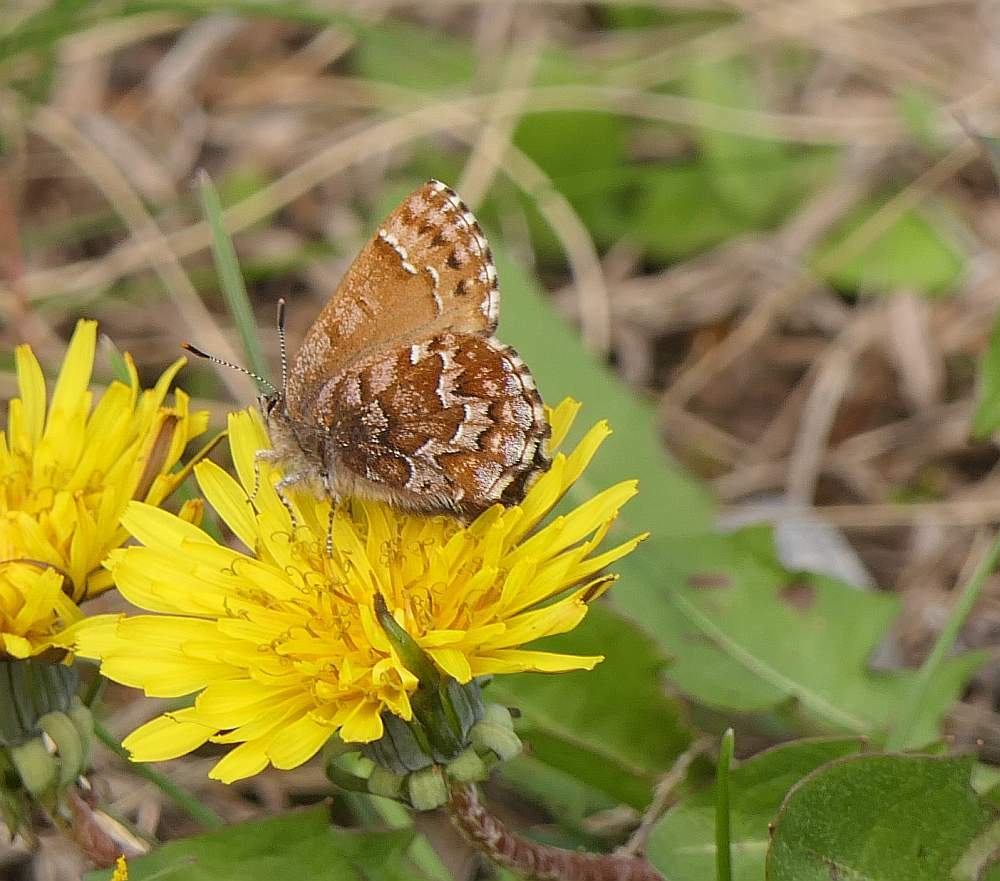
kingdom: Animalia
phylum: Arthropoda
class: Insecta
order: Lepidoptera
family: Lycaenidae
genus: Incisalia
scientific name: Incisalia niphon
